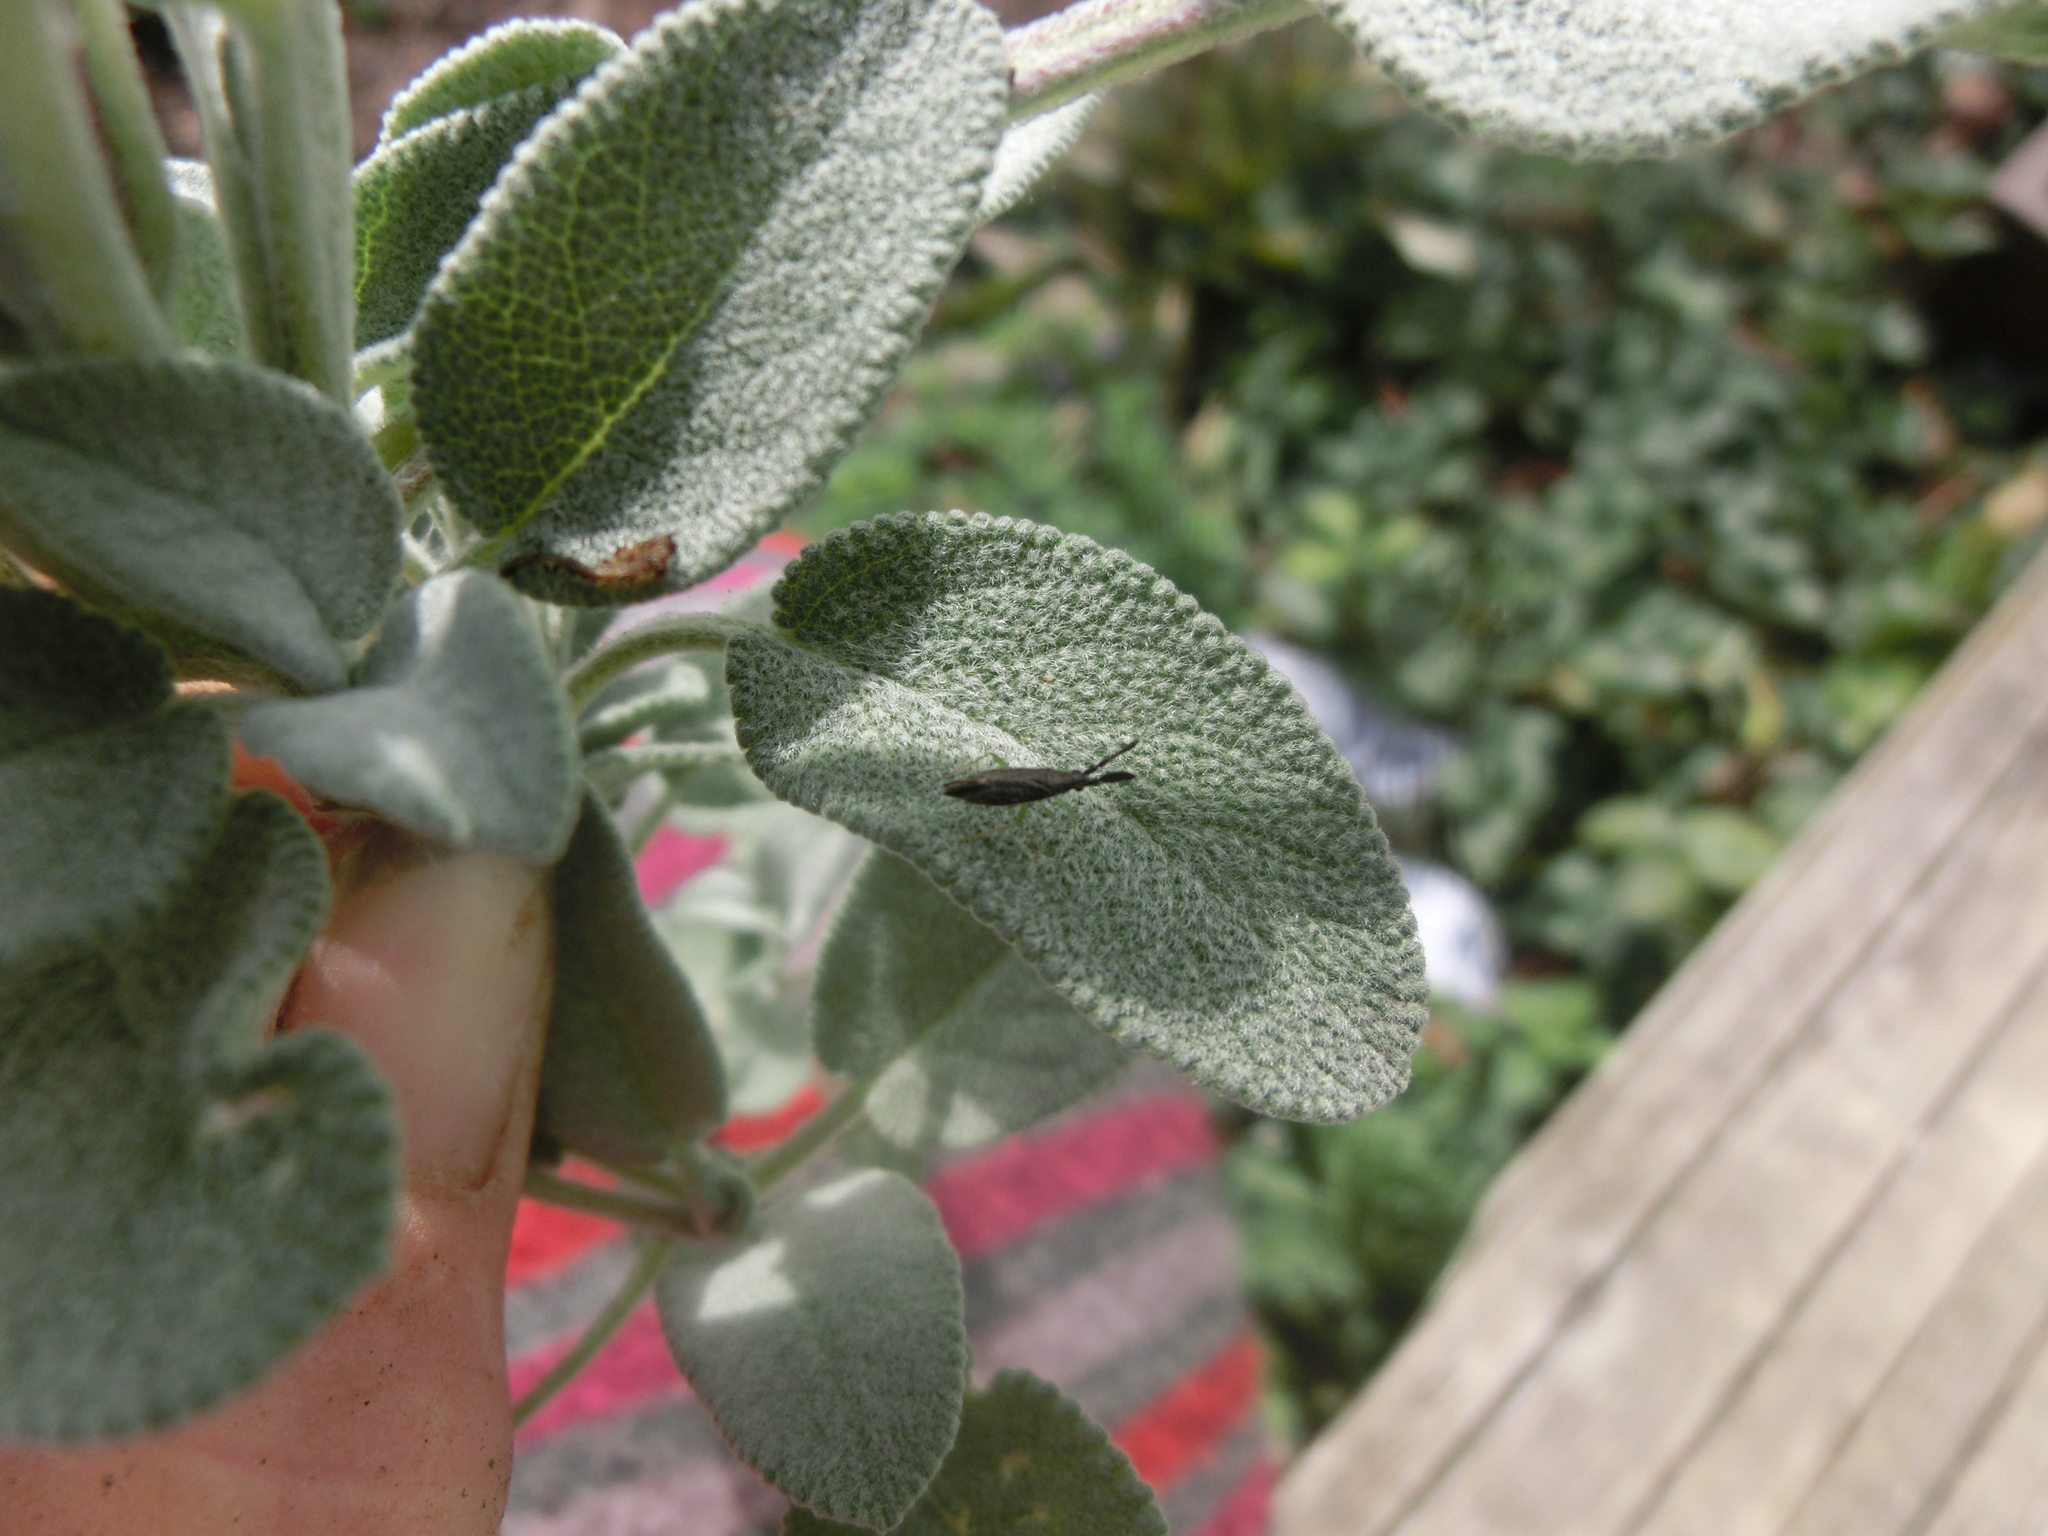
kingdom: Animalia
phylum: Arthropoda
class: Insecta
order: Hemiptera
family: Miridae
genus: Heterotoma
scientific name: Heterotoma planicornis
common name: Plant bug
